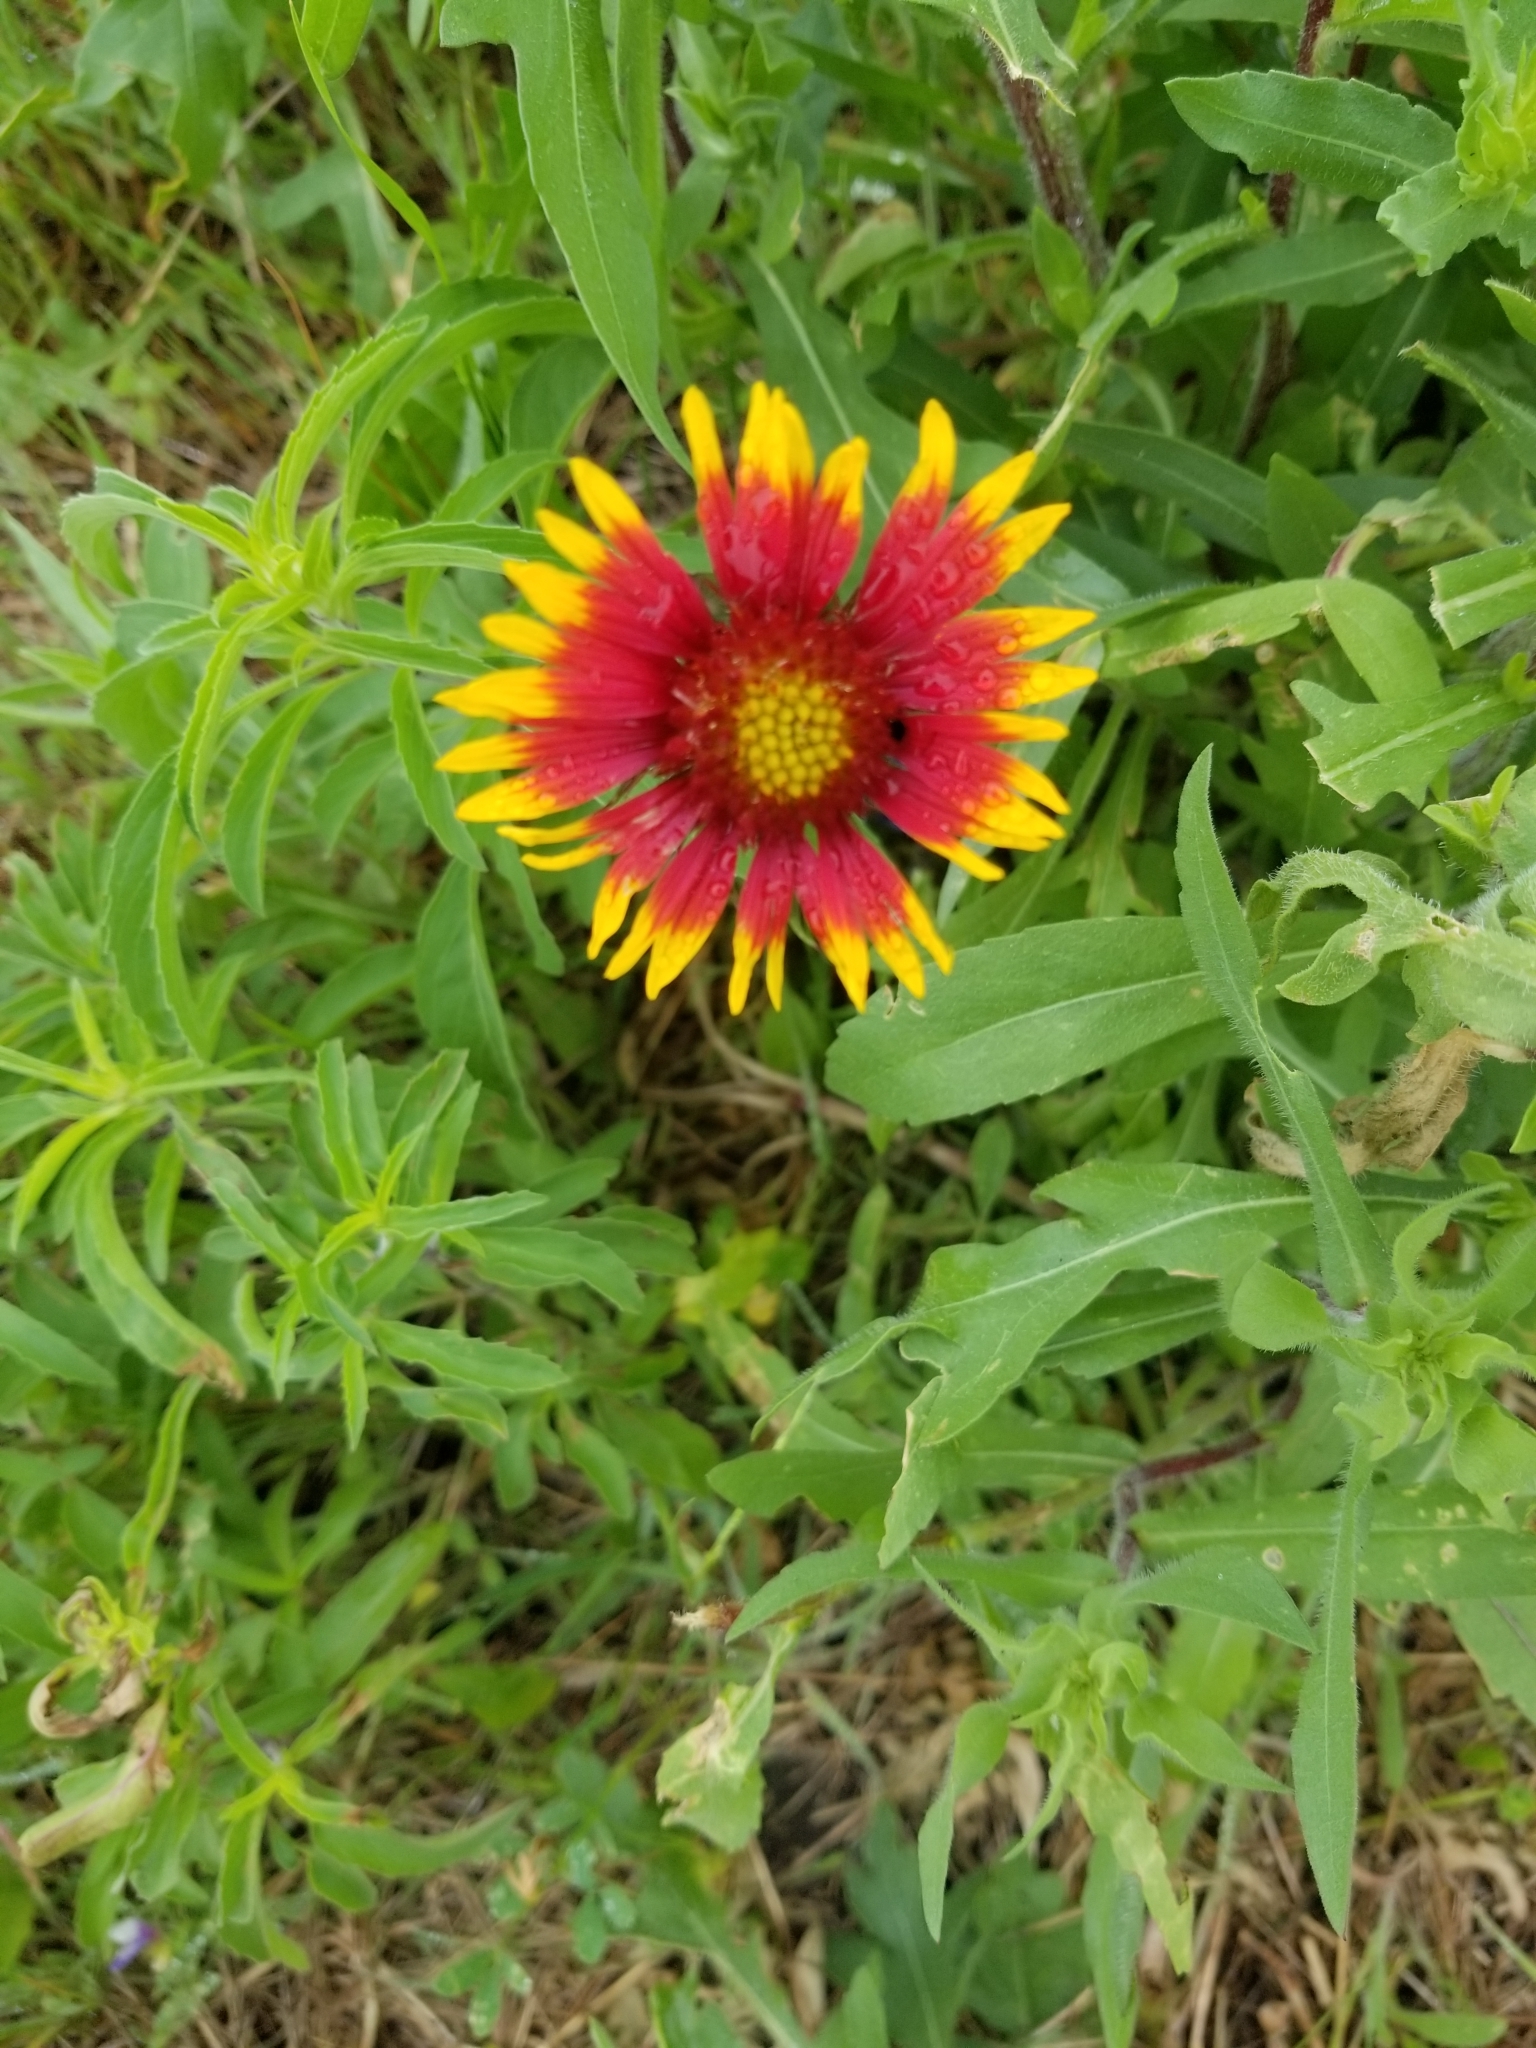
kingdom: Plantae
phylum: Tracheophyta
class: Magnoliopsida
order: Asterales
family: Asteraceae
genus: Gaillardia
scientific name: Gaillardia pulchella
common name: Firewheel
